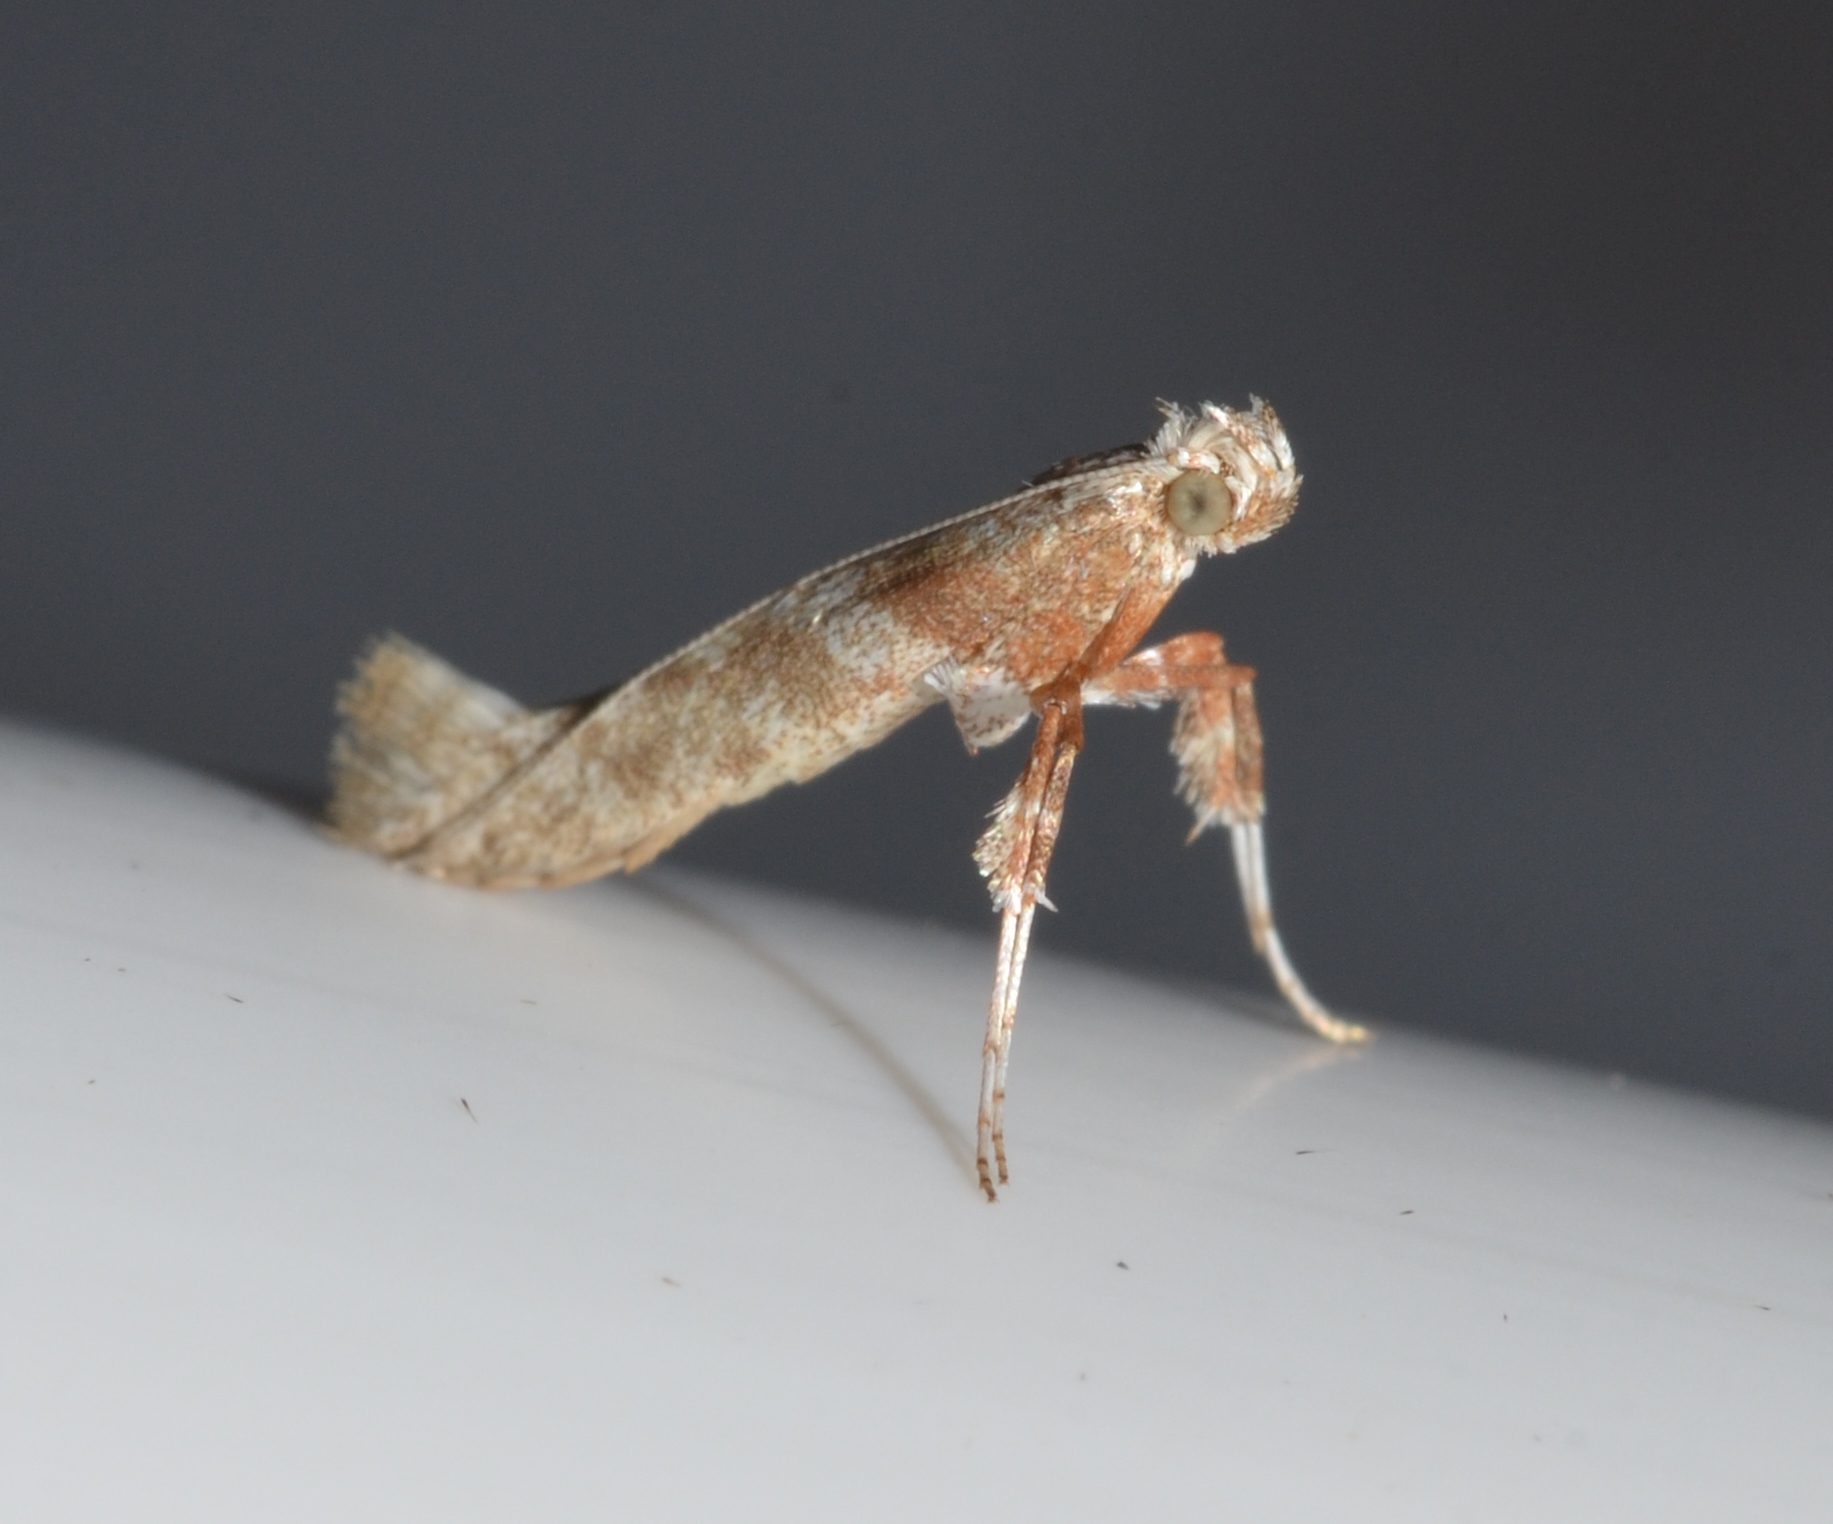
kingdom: Animalia
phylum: Arthropoda
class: Insecta
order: Lepidoptera
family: Gracillariidae
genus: Povolnya
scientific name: Povolnya quercinigrella
